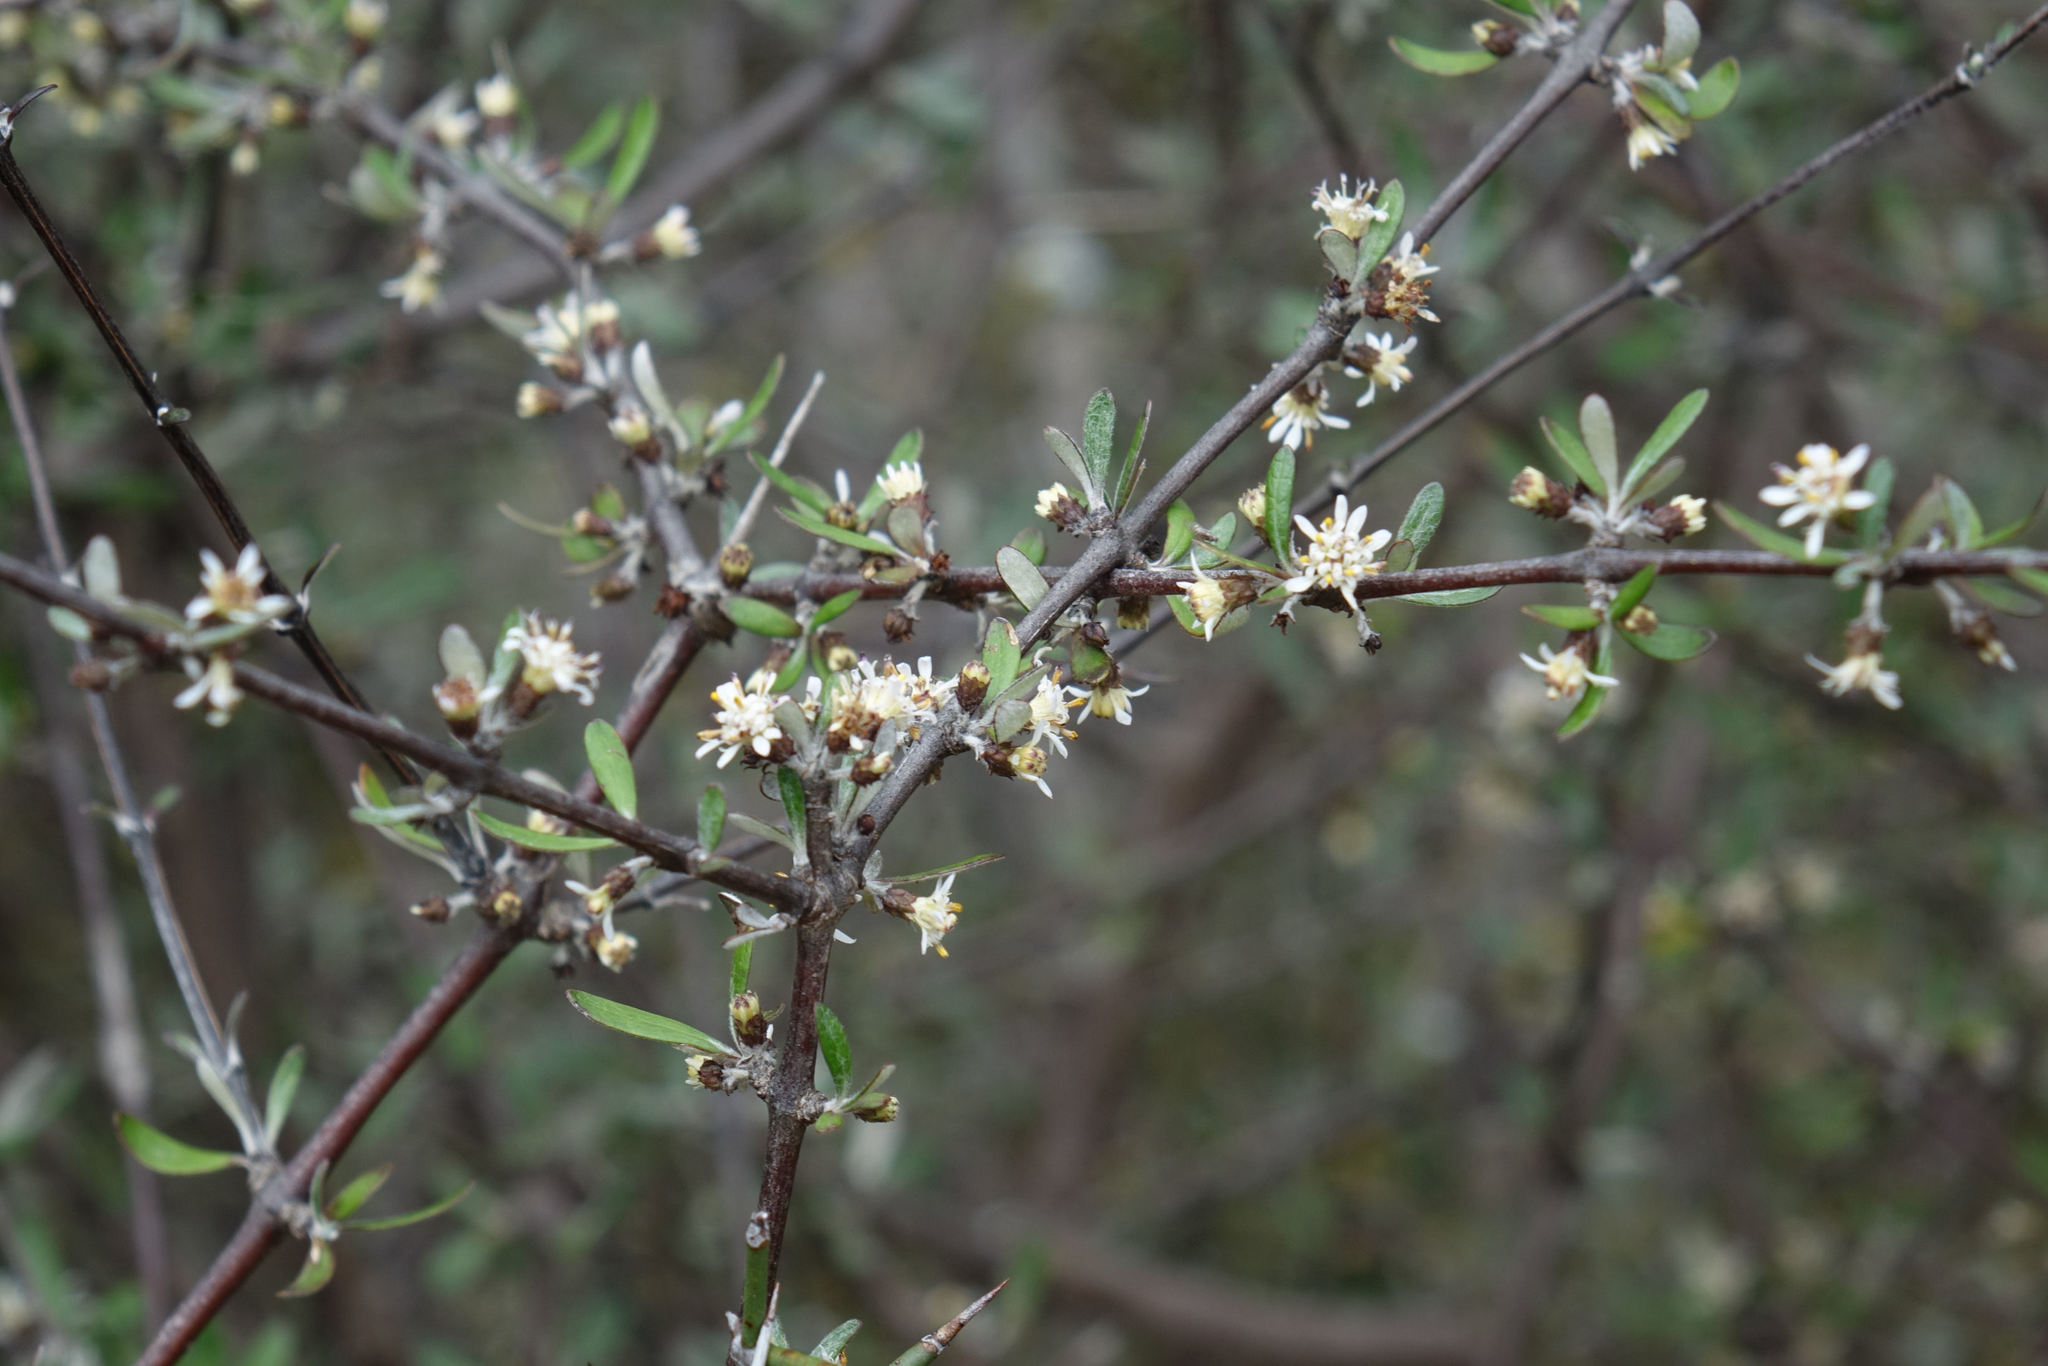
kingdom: Plantae
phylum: Tracheophyta
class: Magnoliopsida
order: Asterales
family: Asteraceae
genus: Olearia
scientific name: Olearia odorata
